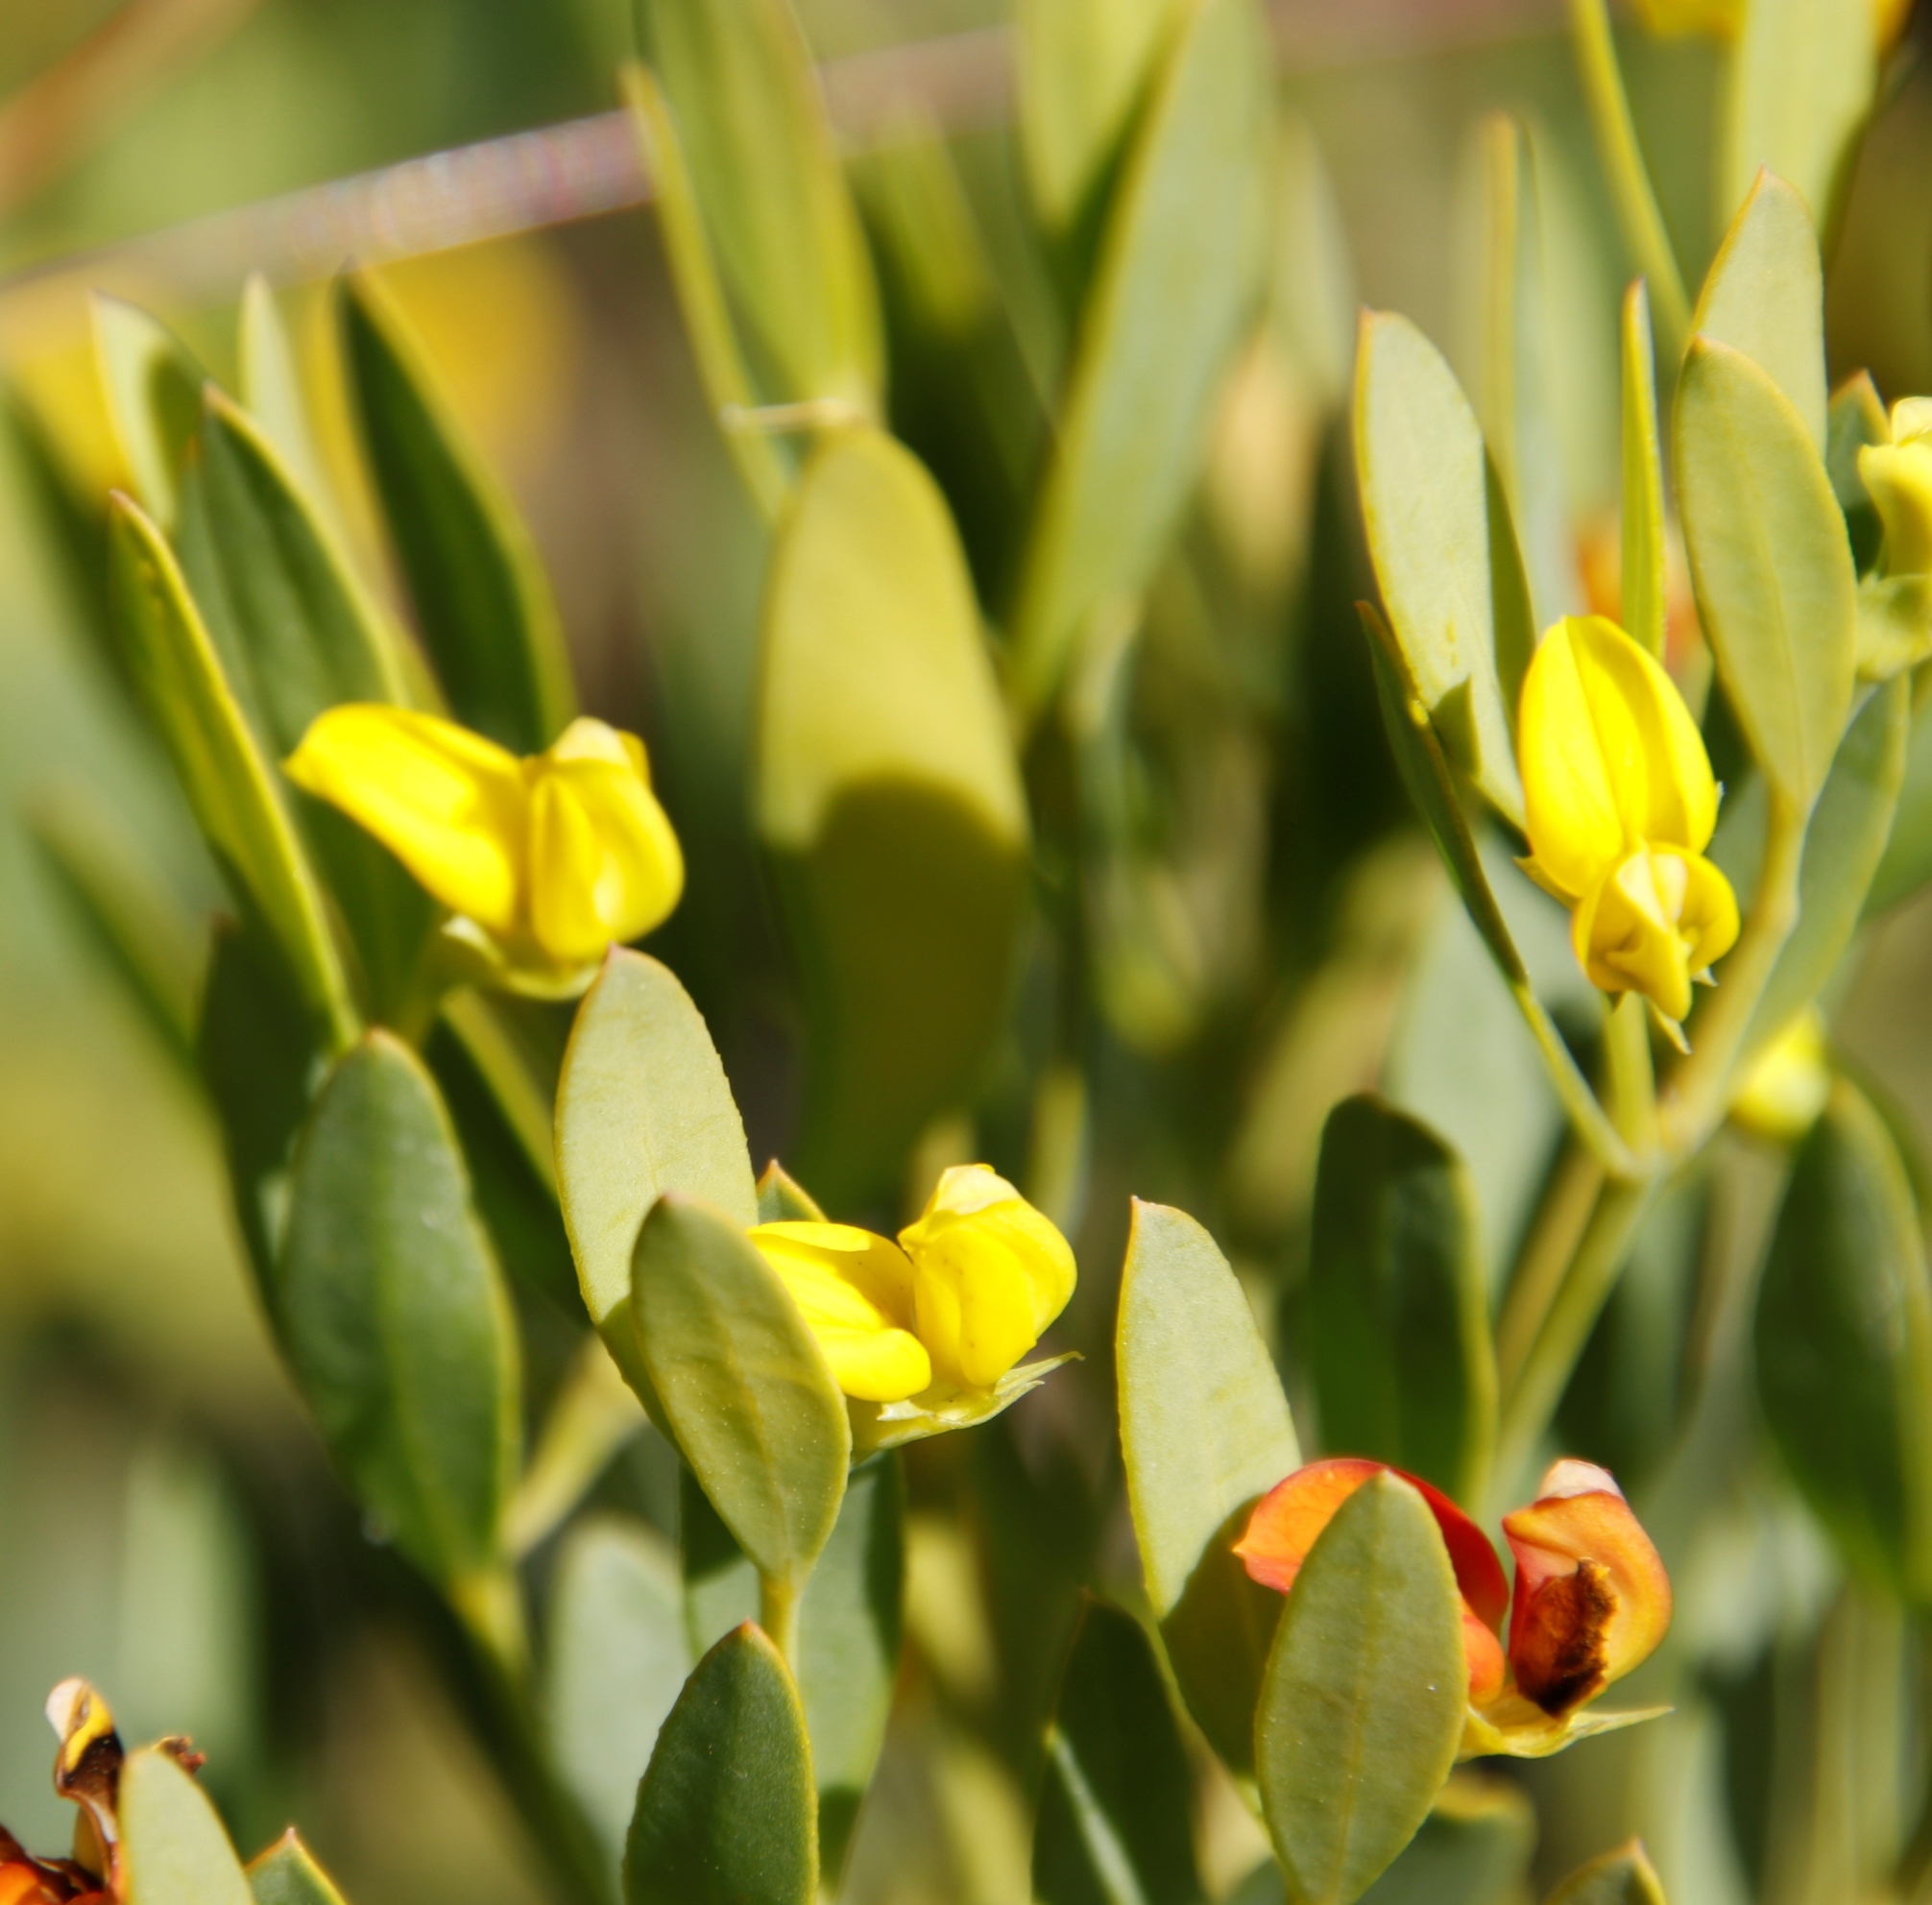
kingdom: Plantae
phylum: Tracheophyta
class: Magnoliopsida
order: Fabales
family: Fabaceae
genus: Rafnia
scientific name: Rafnia angulata
